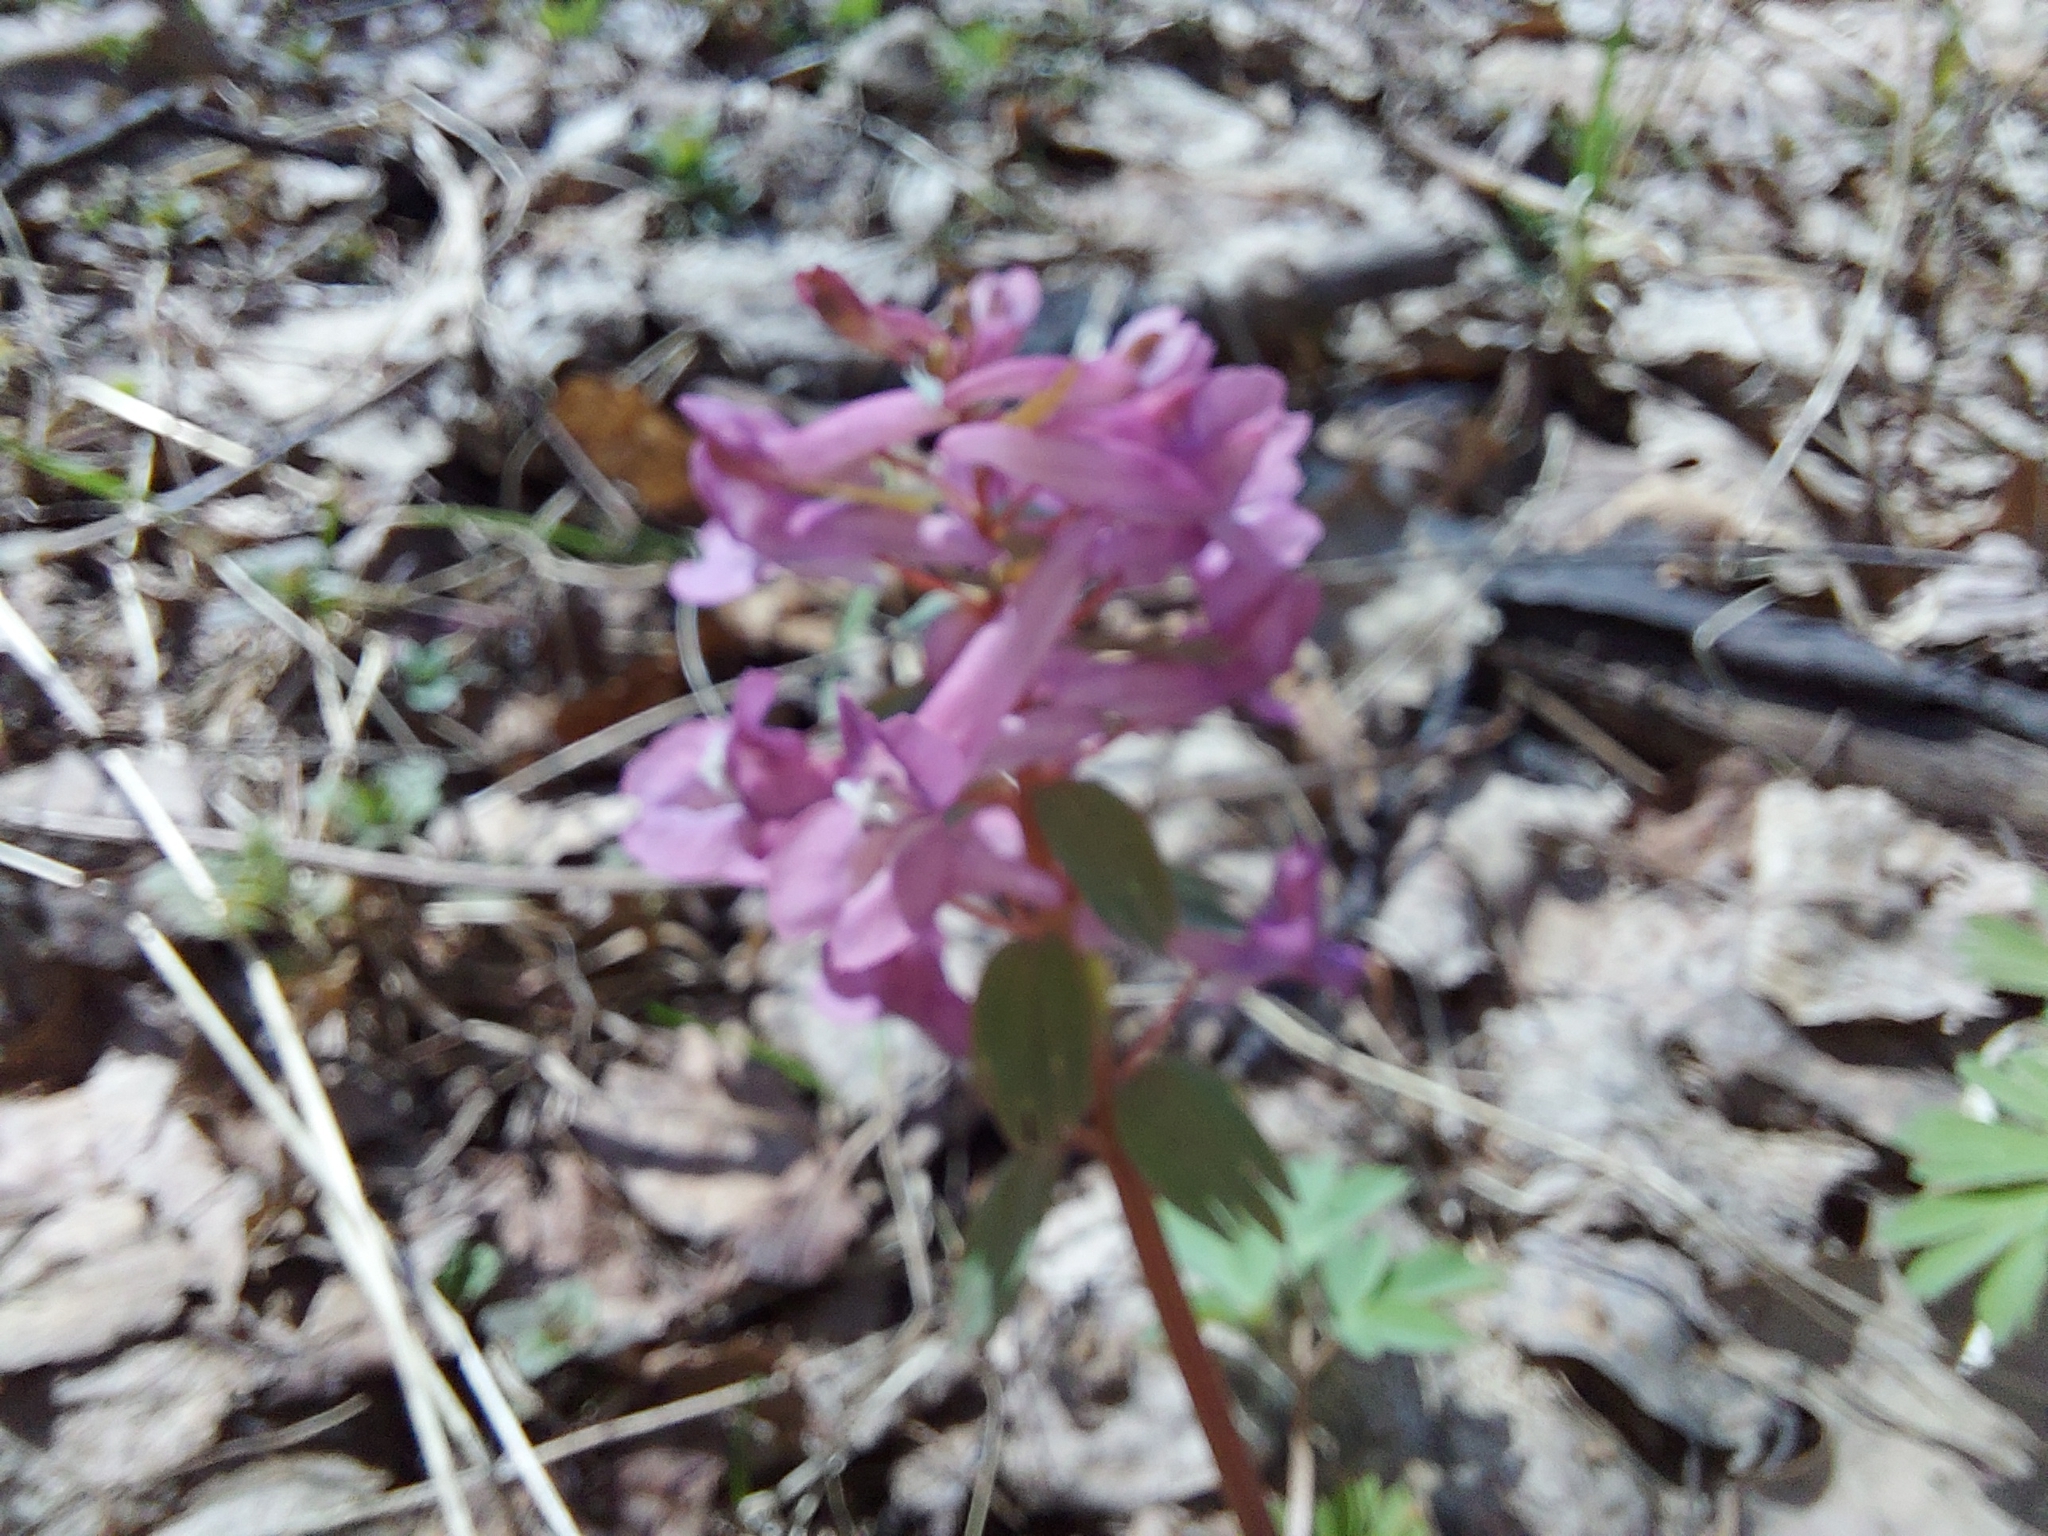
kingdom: Plantae
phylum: Tracheophyta
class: Magnoliopsida
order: Ranunculales
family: Papaveraceae
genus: Corydalis
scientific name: Corydalis solida
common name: Bird-in-a-bush
